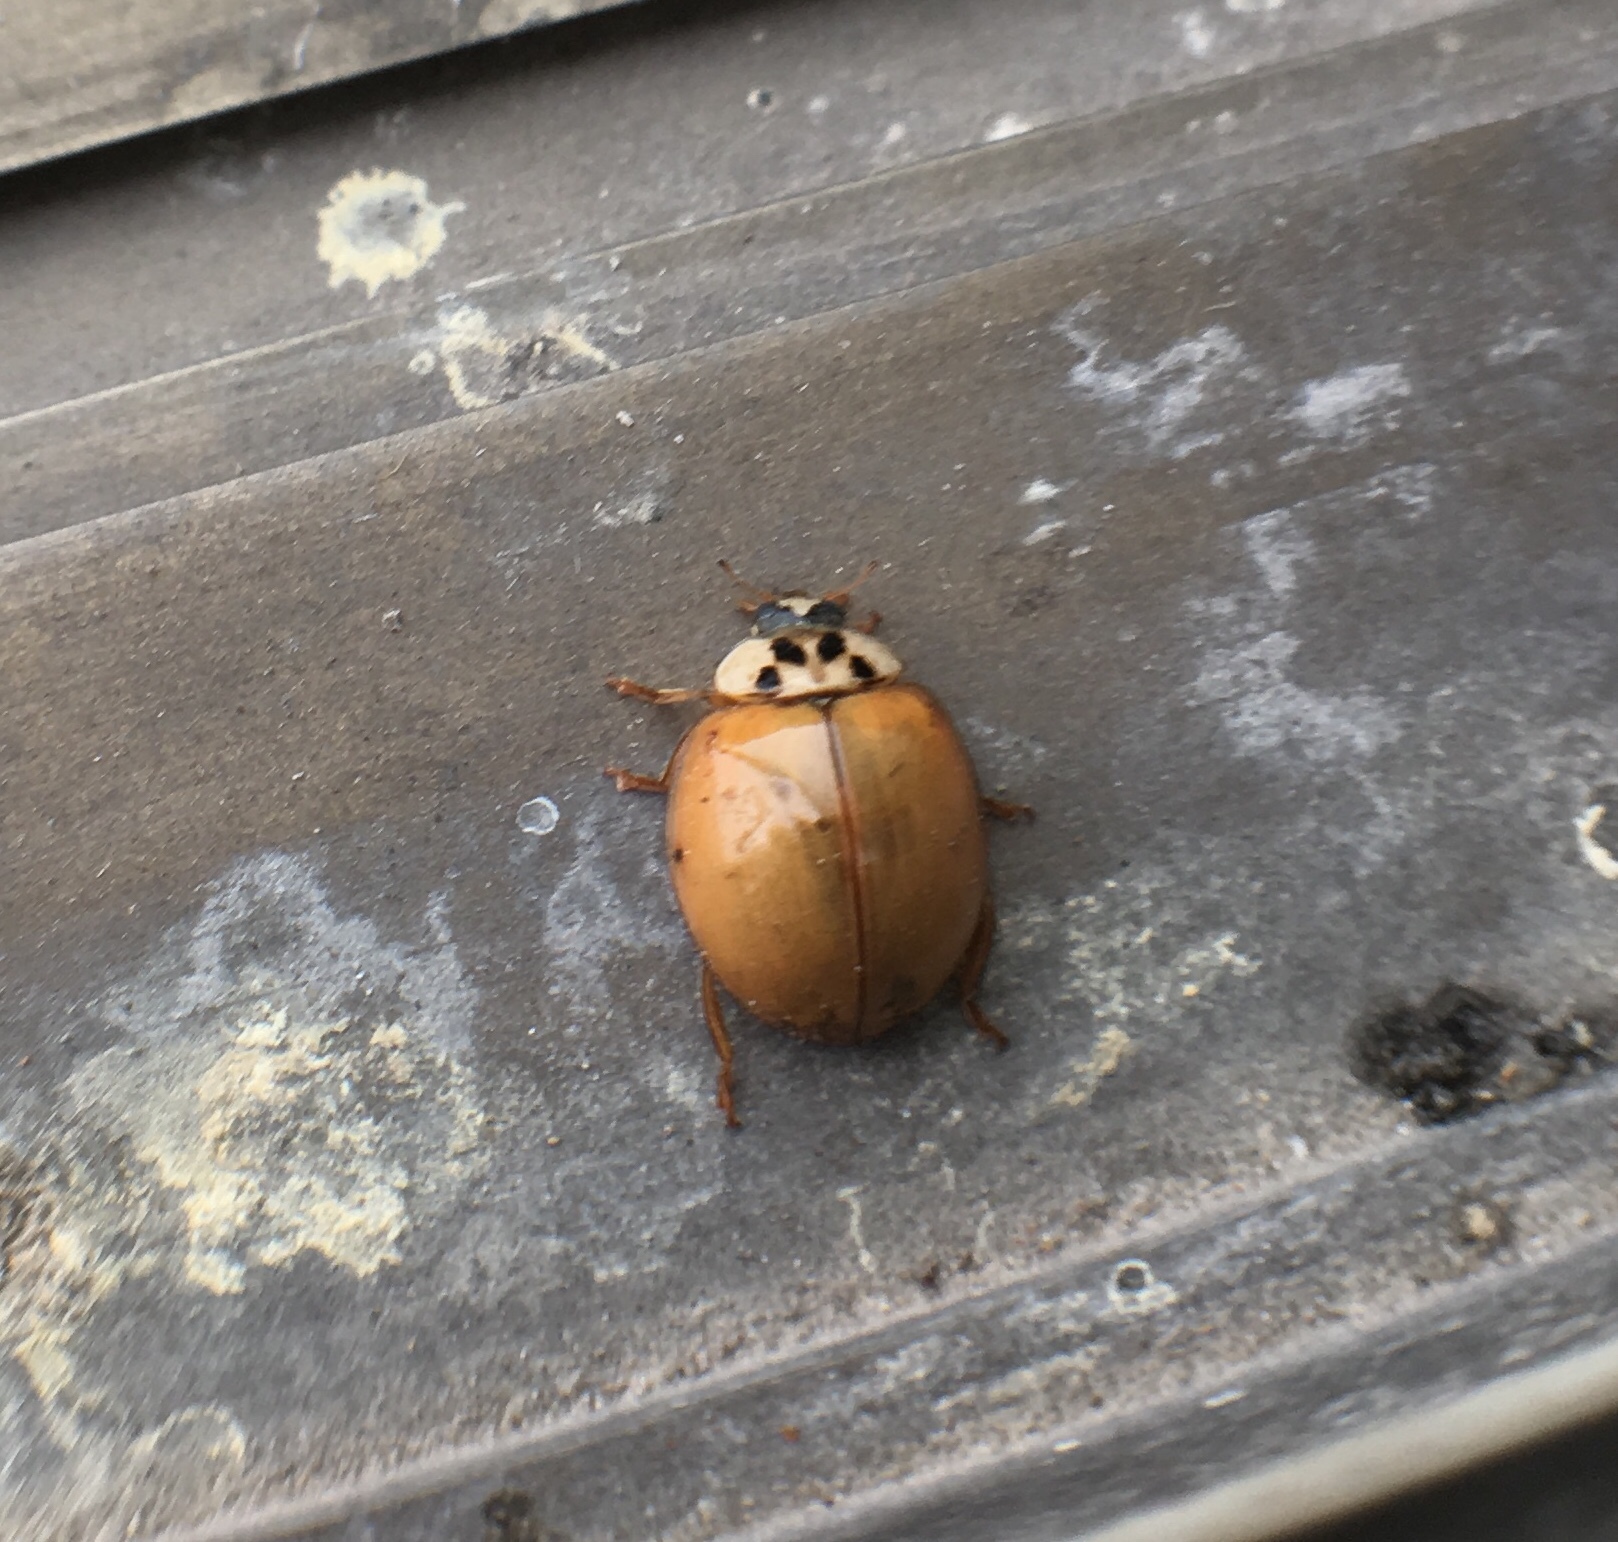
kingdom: Animalia
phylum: Arthropoda
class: Insecta
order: Coleoptera
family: Coccinellidae
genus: Harmonia
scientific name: Harmonia axyridis
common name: Harlequin ladybird
